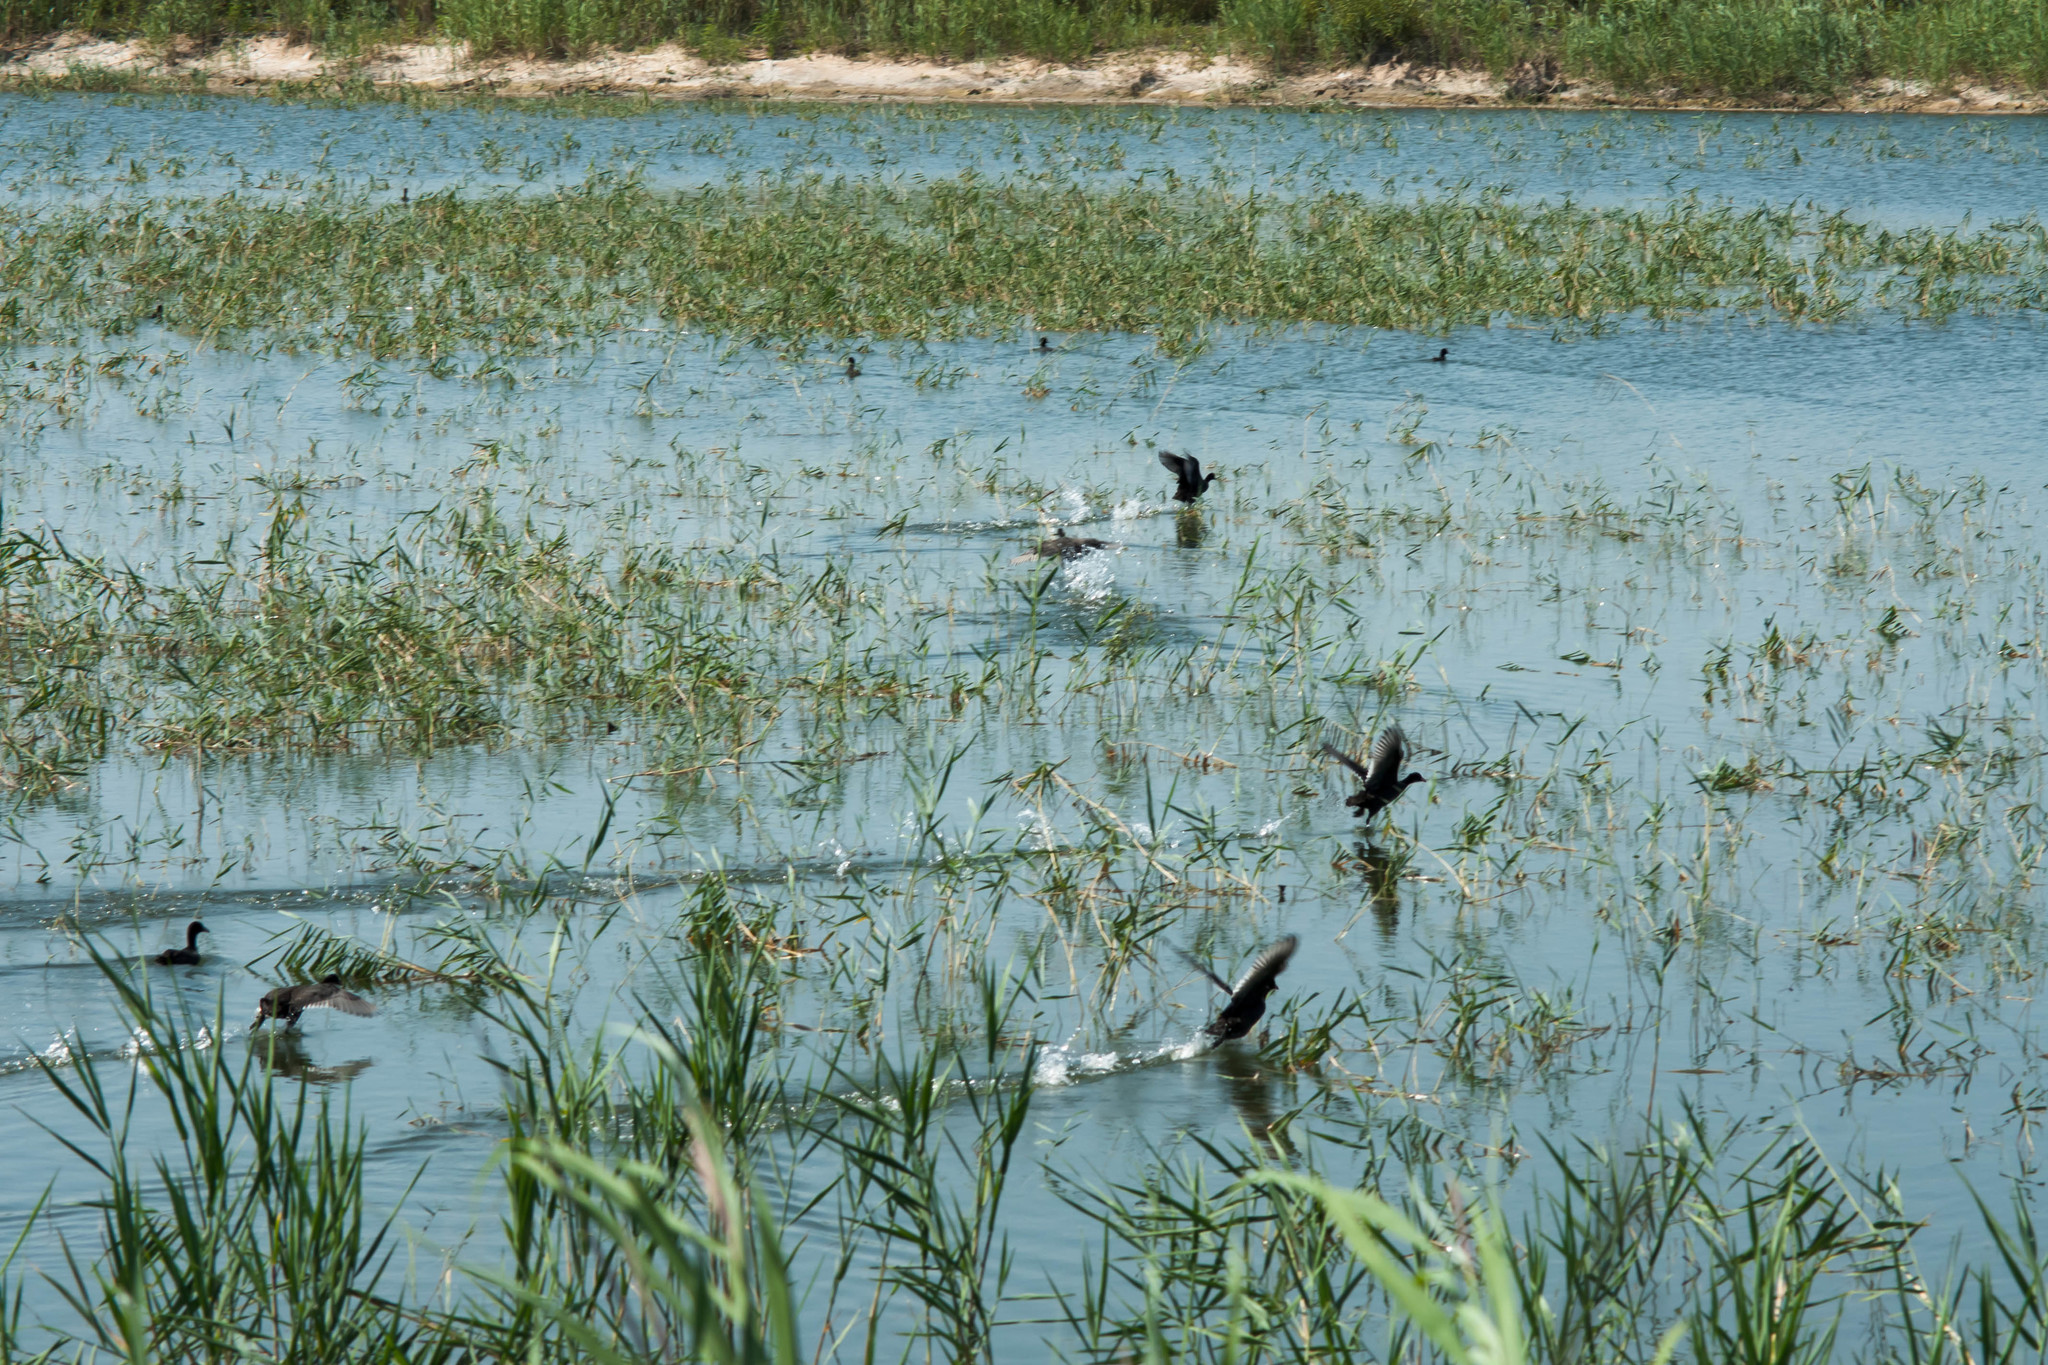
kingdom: Animalia
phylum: Chordata
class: Aves
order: Gruiformes
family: Rallidae
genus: Fulica
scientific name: Fulica atra
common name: Eurasian coot
